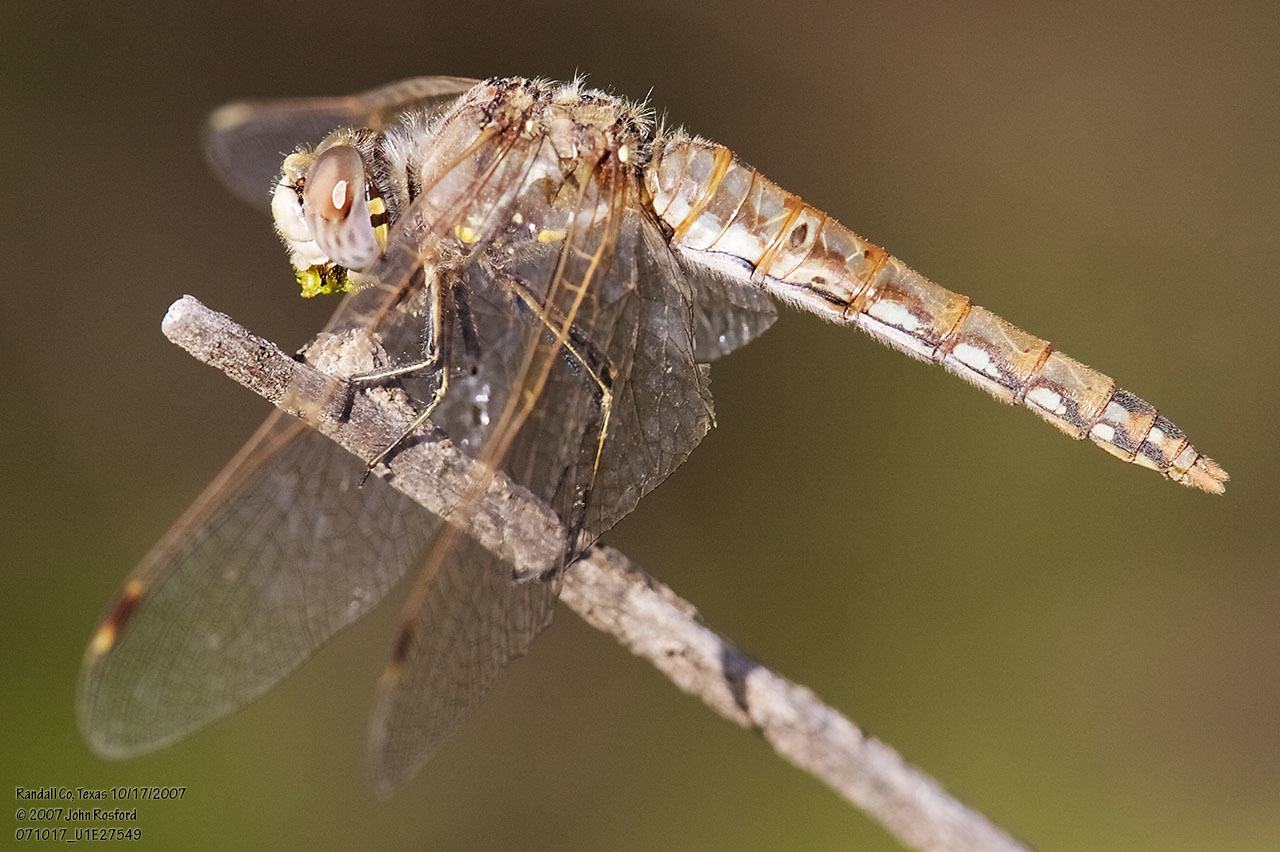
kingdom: Animalia
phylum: Arthropoda
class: Insecta
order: Odonata
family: Libellulidae
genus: Sympetrum
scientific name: Sympetrum corruptum
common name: Variegated meadowhawk
